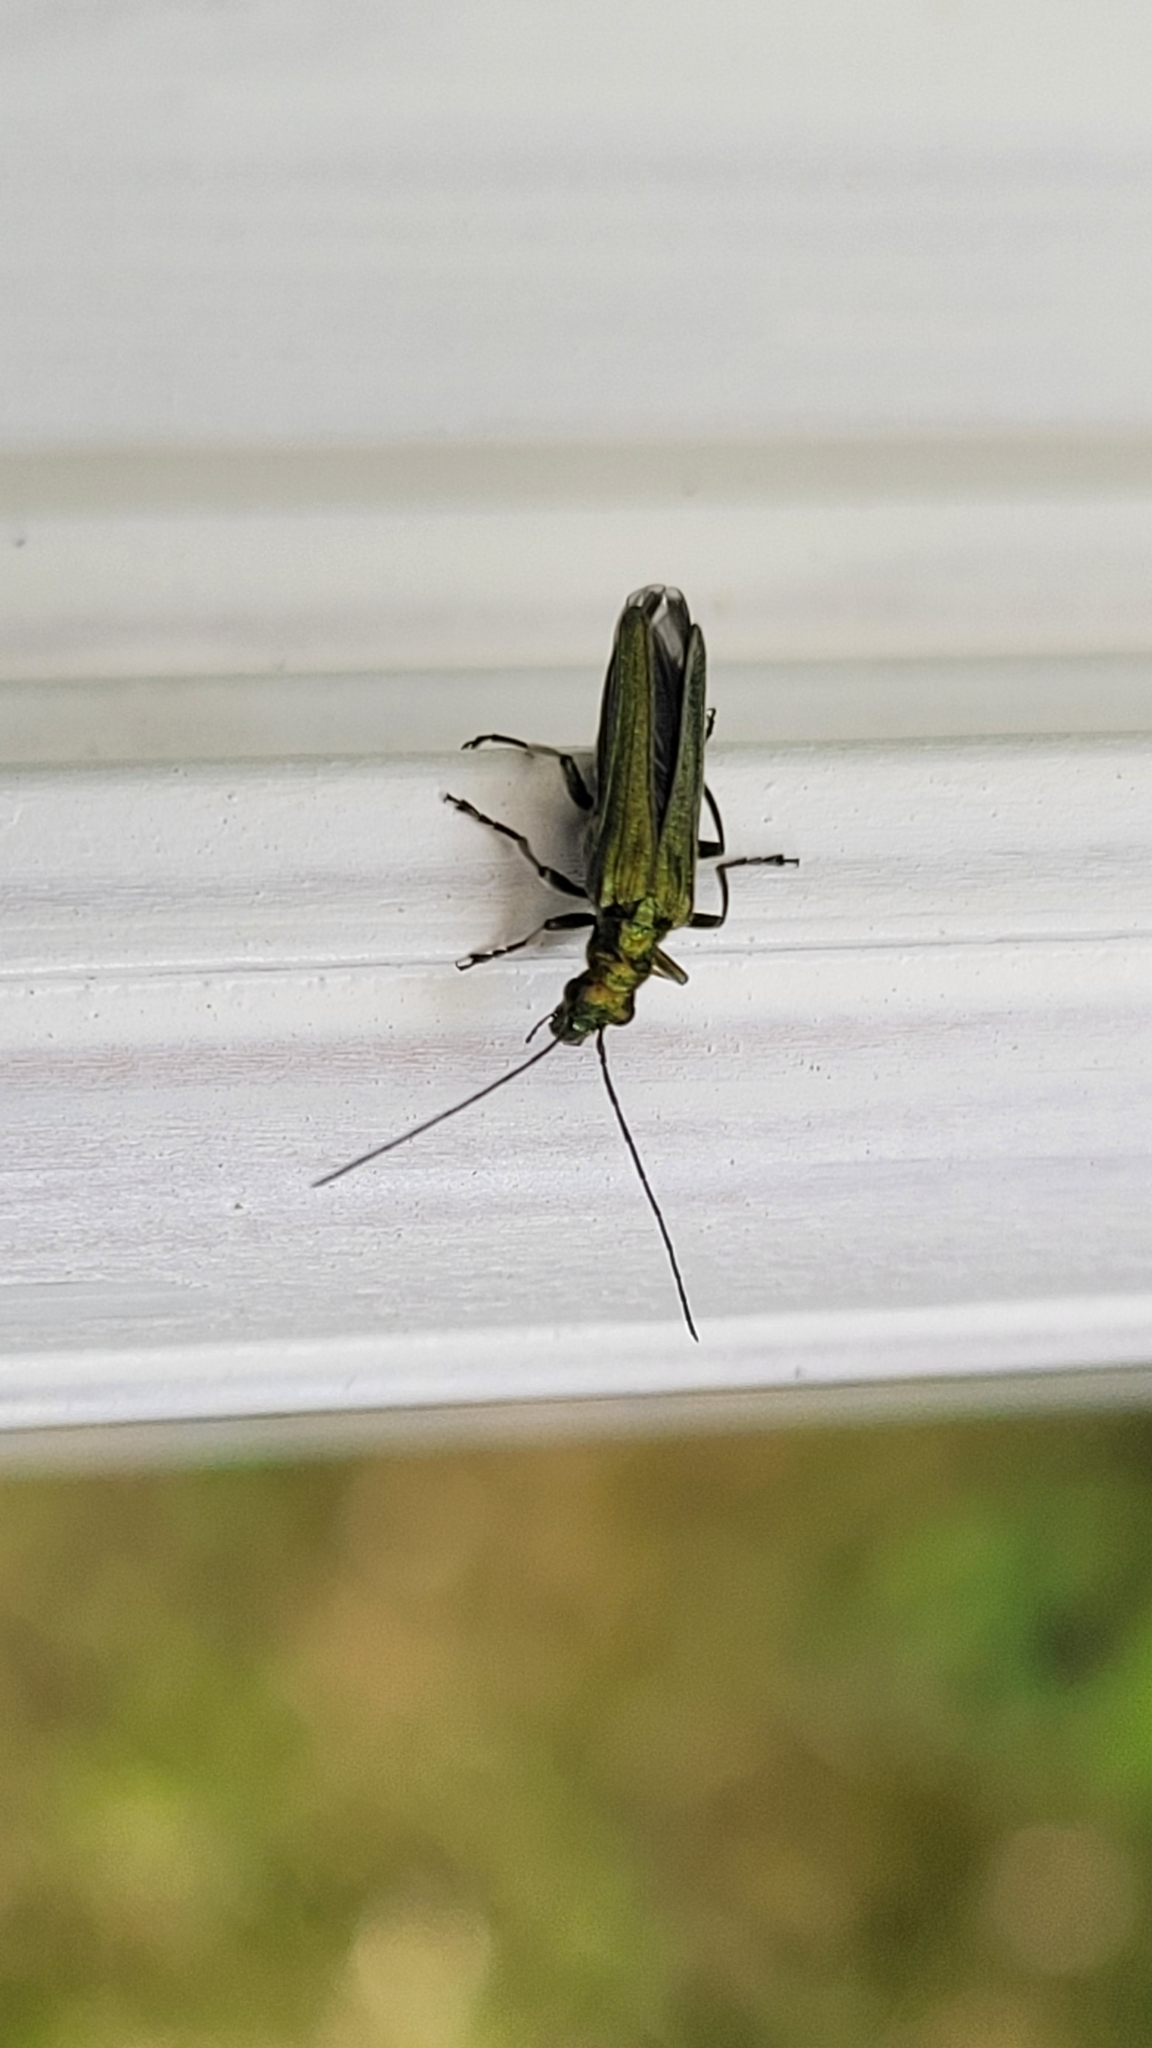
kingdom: Animalia
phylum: Arthropoda
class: Insecta
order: Coleoptera
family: Oedemeridae
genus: Oedemera
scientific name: Oedemera nobilis
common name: Swollen-thighed beetle
